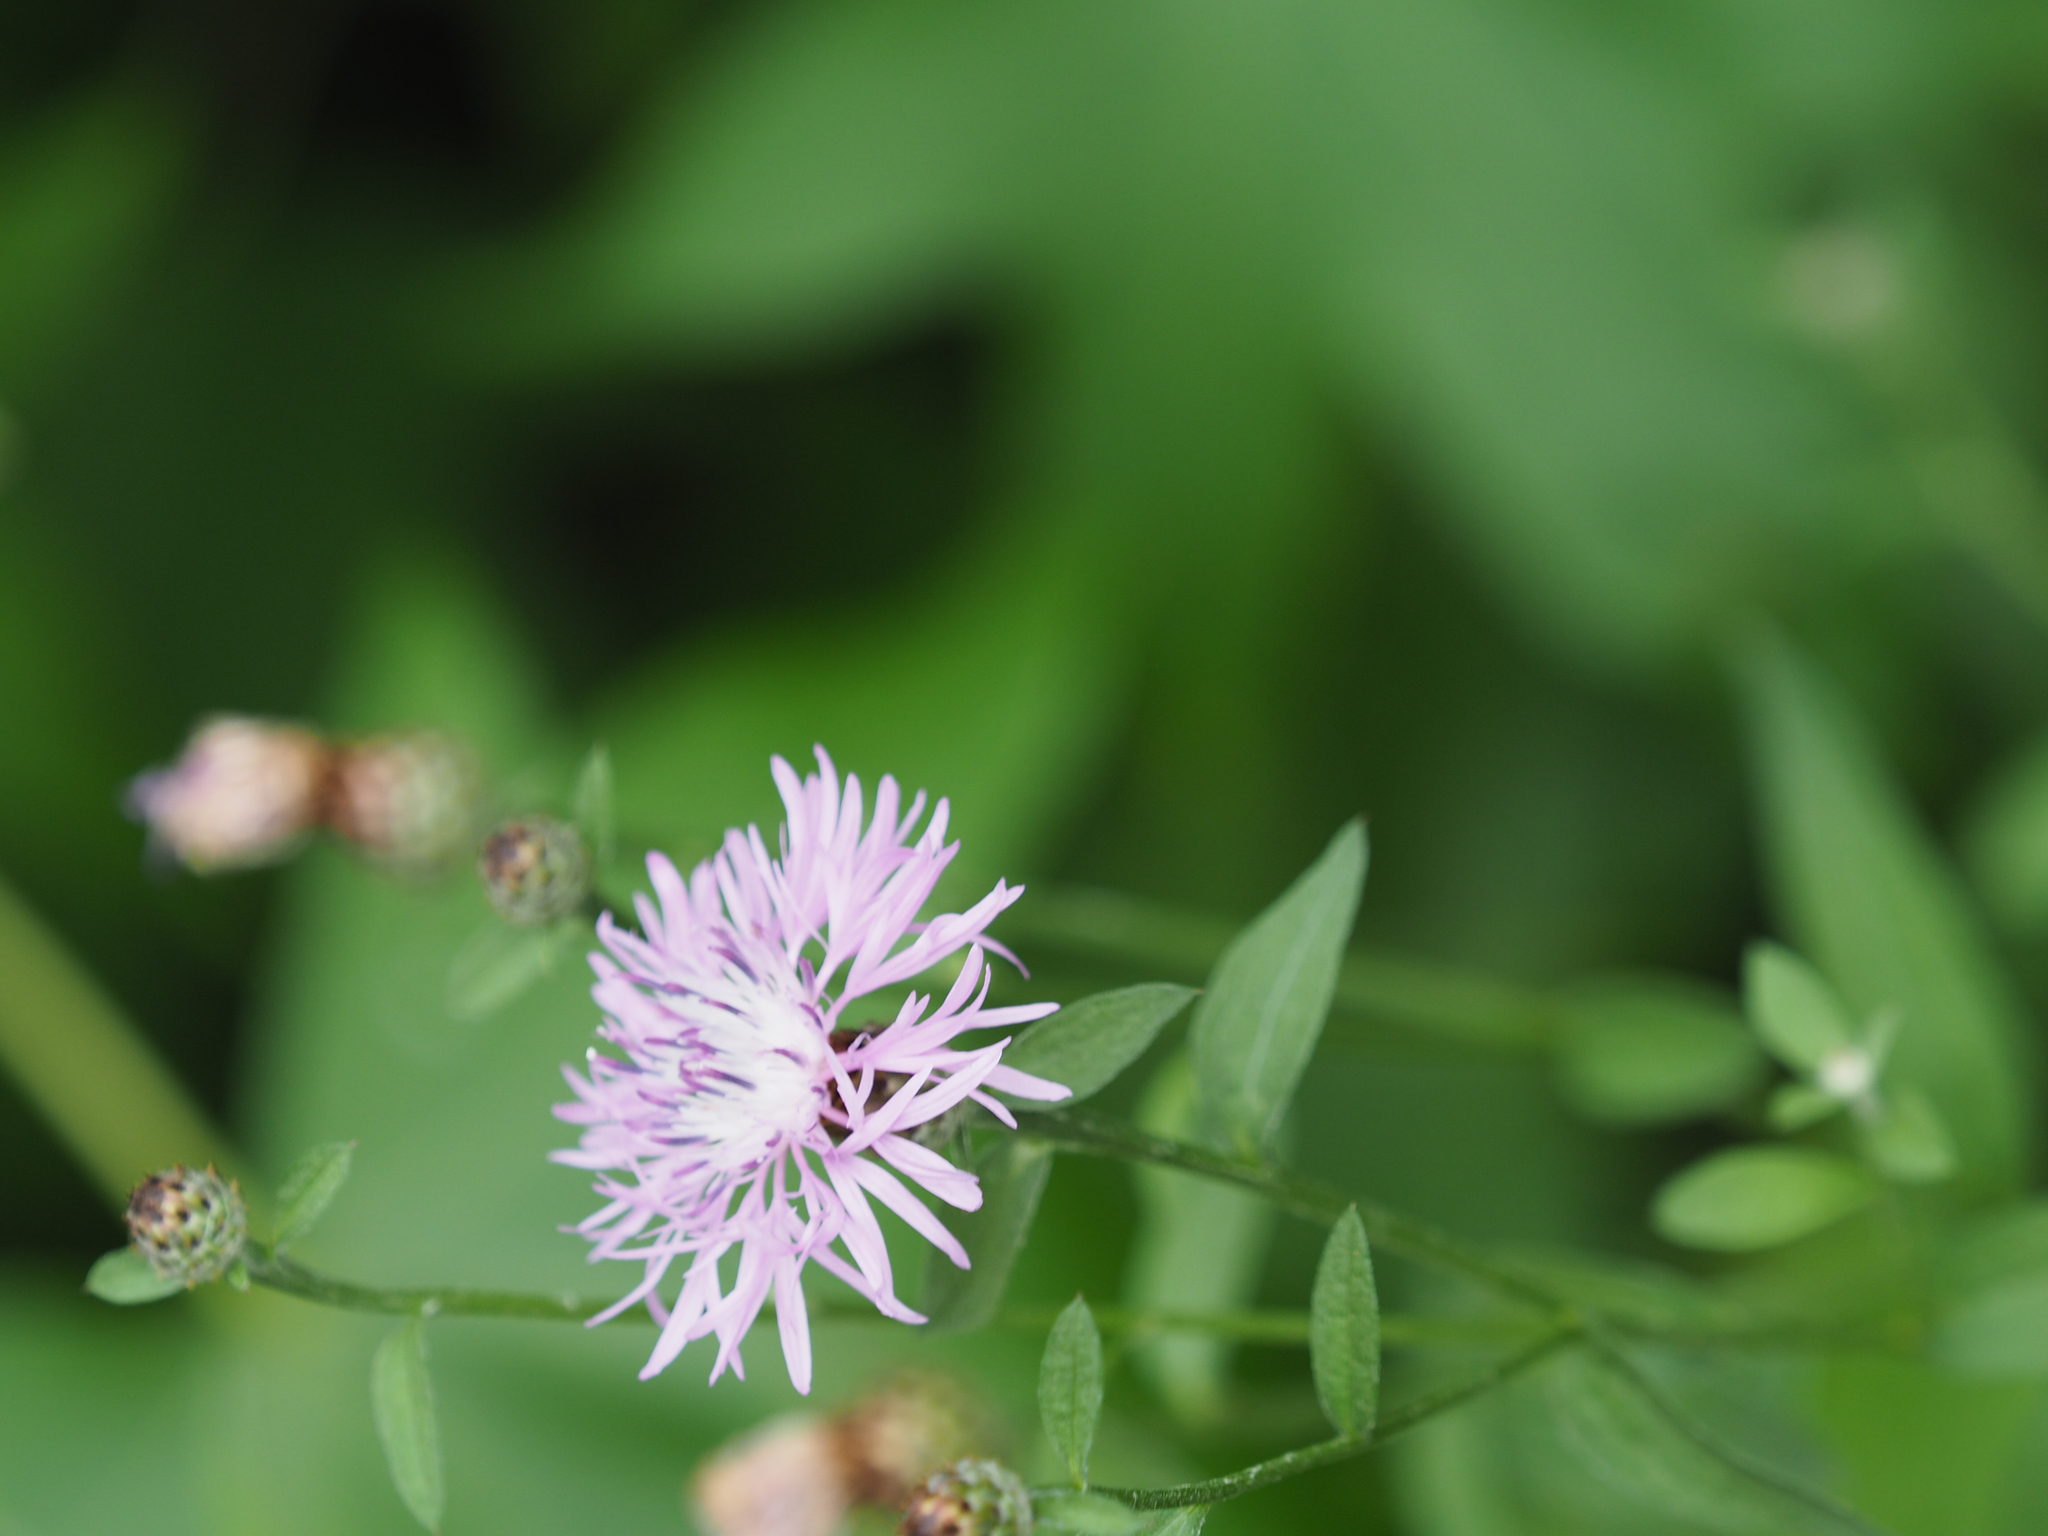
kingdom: Plantae
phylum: Tracheophyta
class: Magnoliopsida
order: Asterales
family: Asteraceae
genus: Centaurea
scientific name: Centaurea nigrescens
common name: Tyrol knapweed
